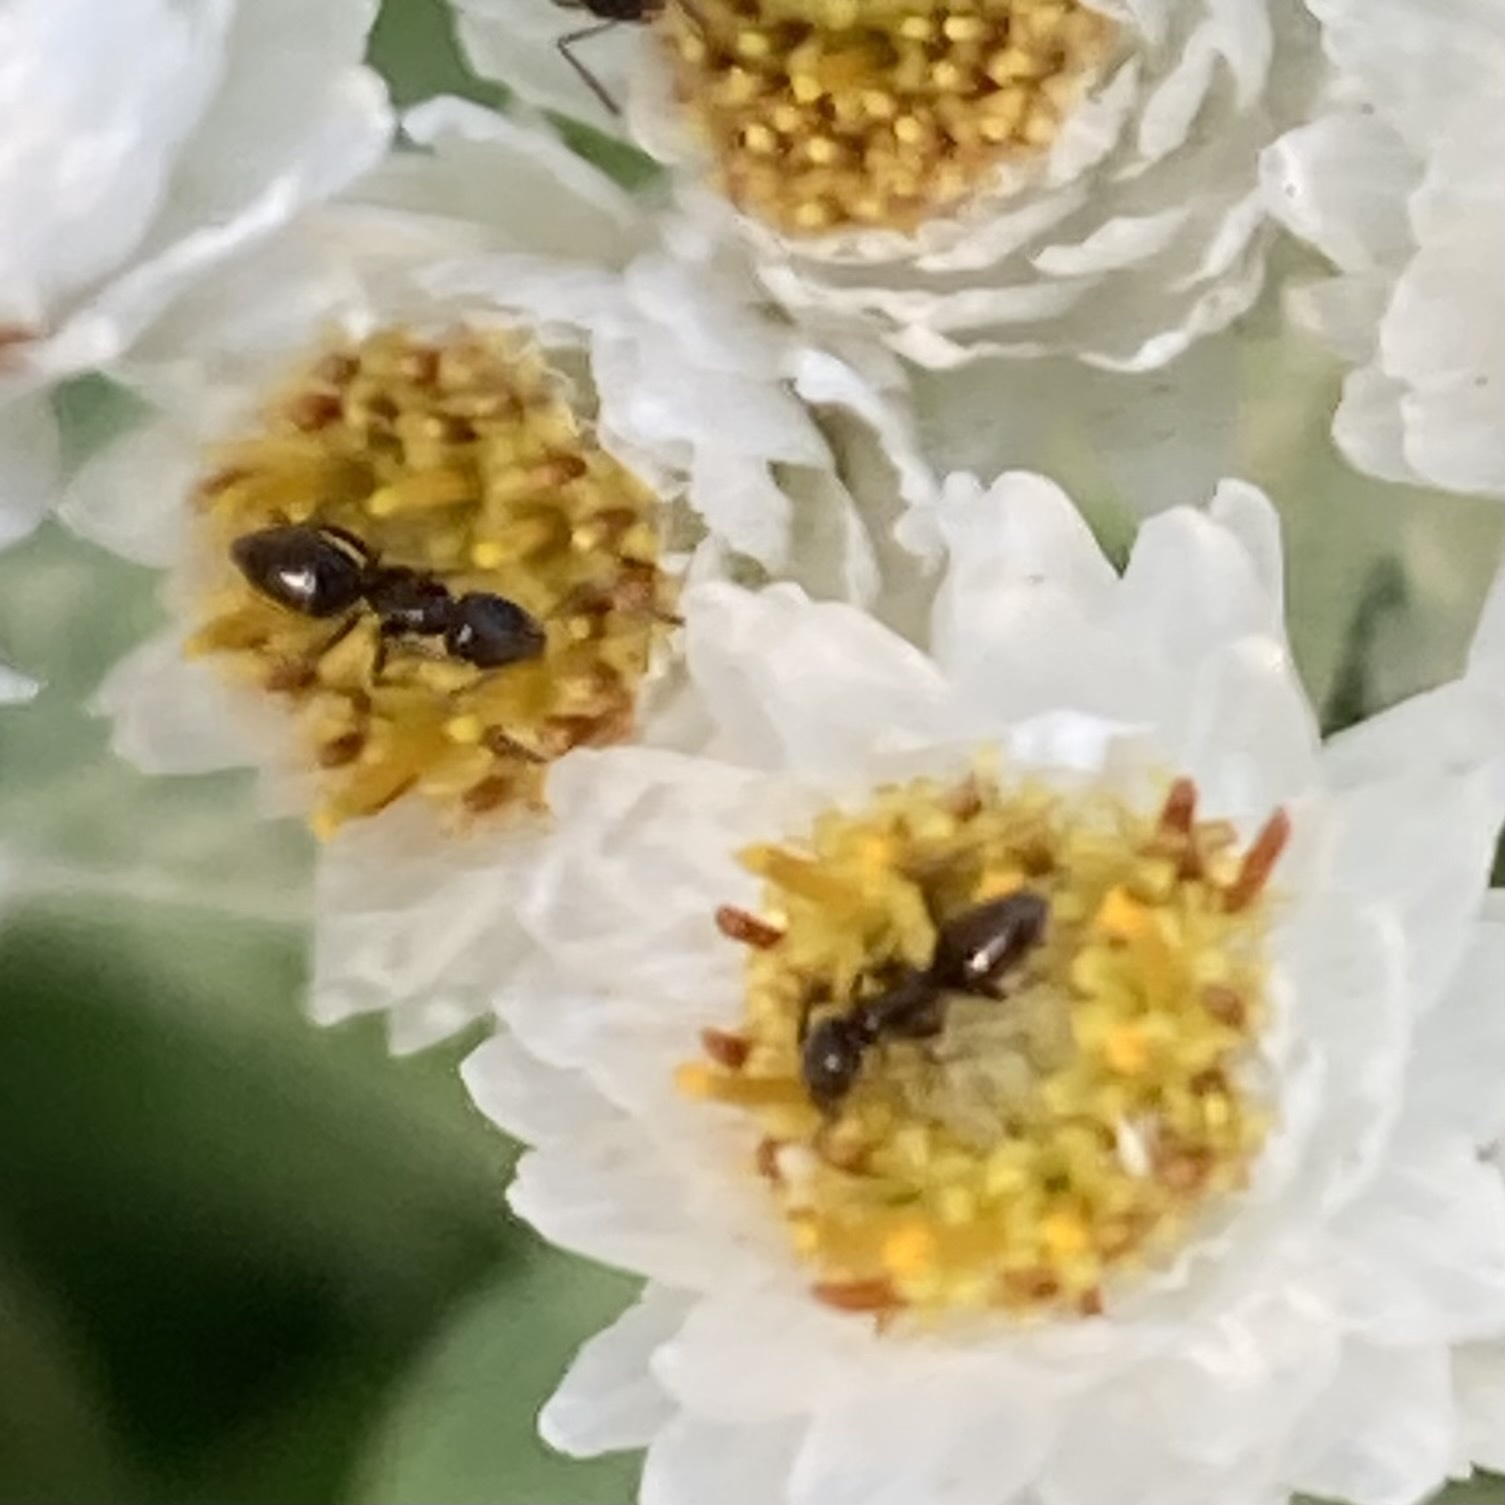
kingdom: Animalia
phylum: Arthropoda
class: Insecta
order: Hymenoptera
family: Formicidae
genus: Tapinoma
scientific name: Tapinoma sessile
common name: Odorous house ant
